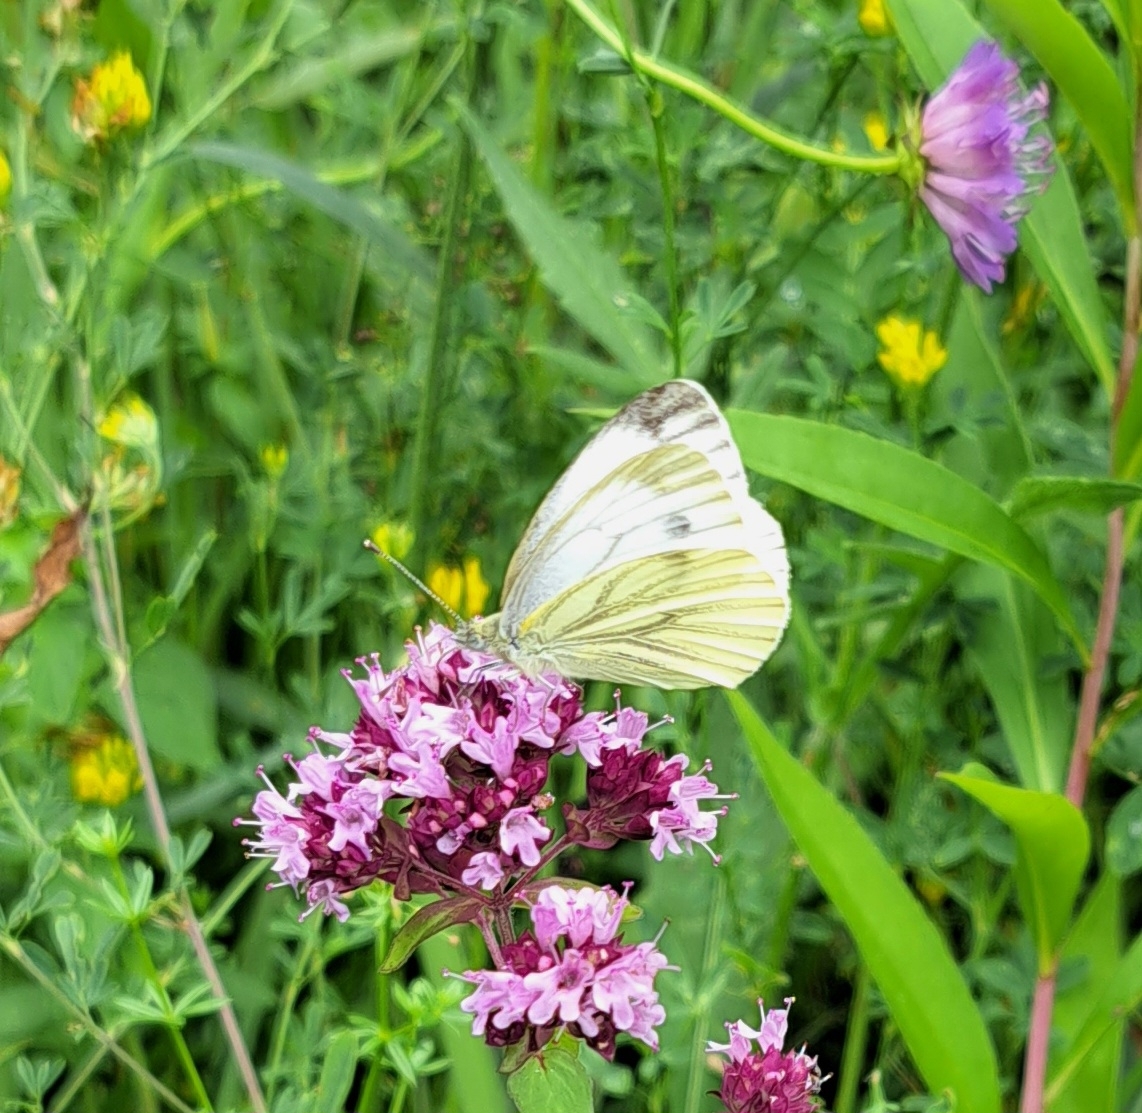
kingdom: Animalia
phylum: Arthropoda
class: Insecta
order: Lepidoptera
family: Pieridae
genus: Pieris
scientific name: Pieris napi
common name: Green-veined white
